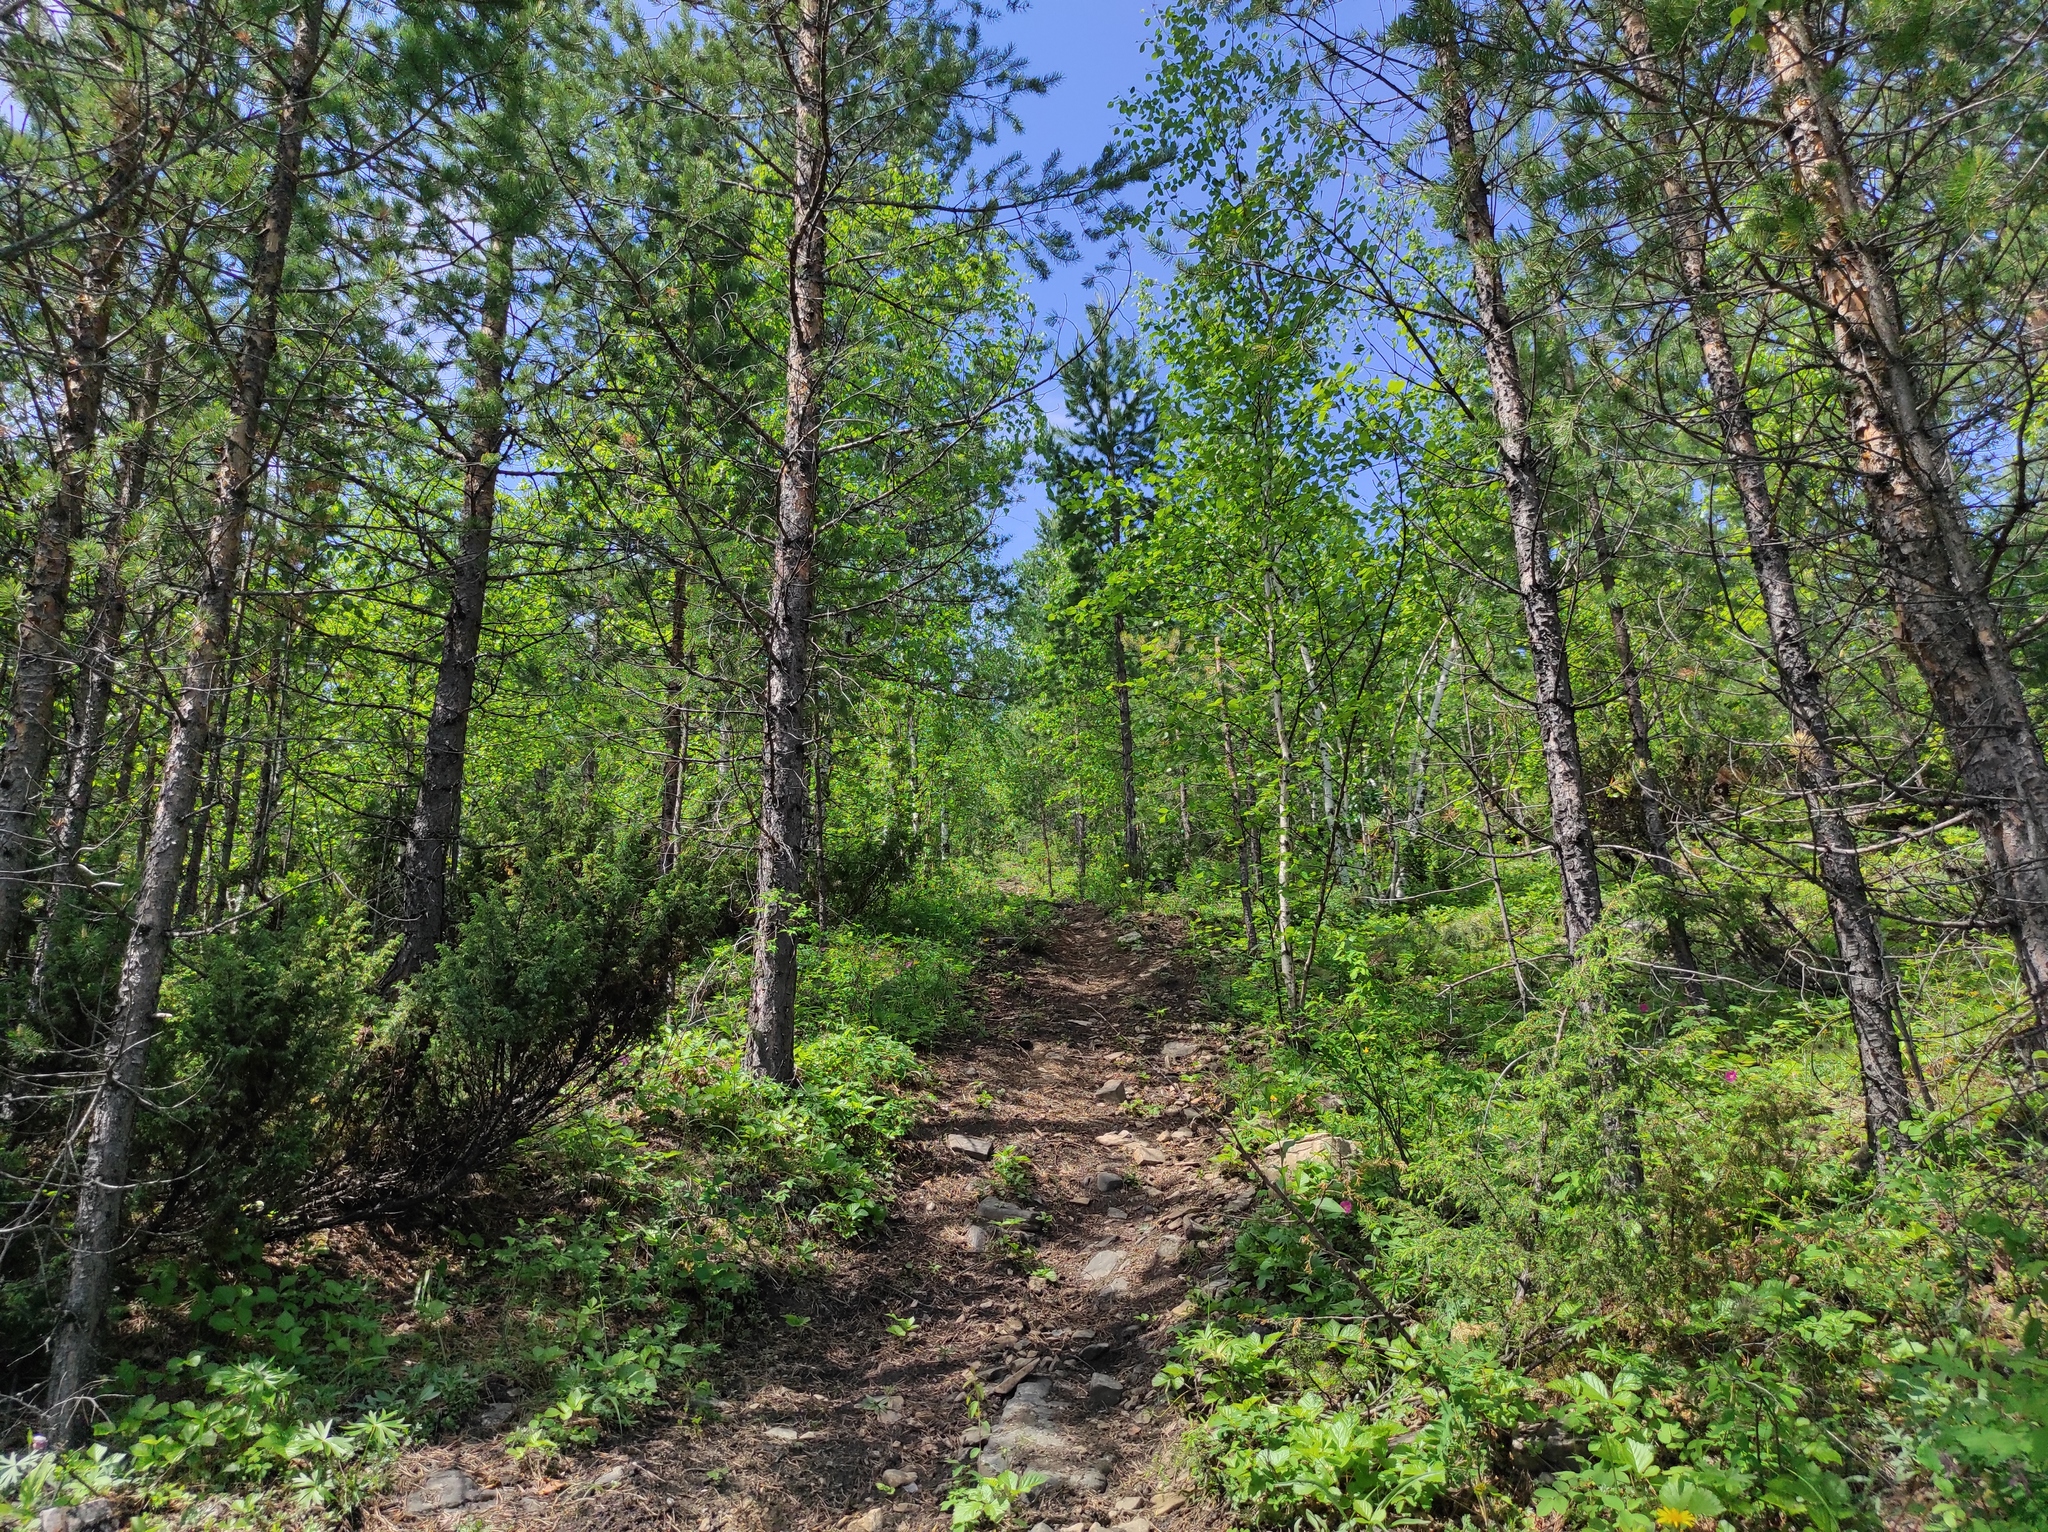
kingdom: Plantae
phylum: Tracheophyta
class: Pinopsida
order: Pinales
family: Pinaceae
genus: Pinus
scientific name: Pinus sylvestris
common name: Scots pine
